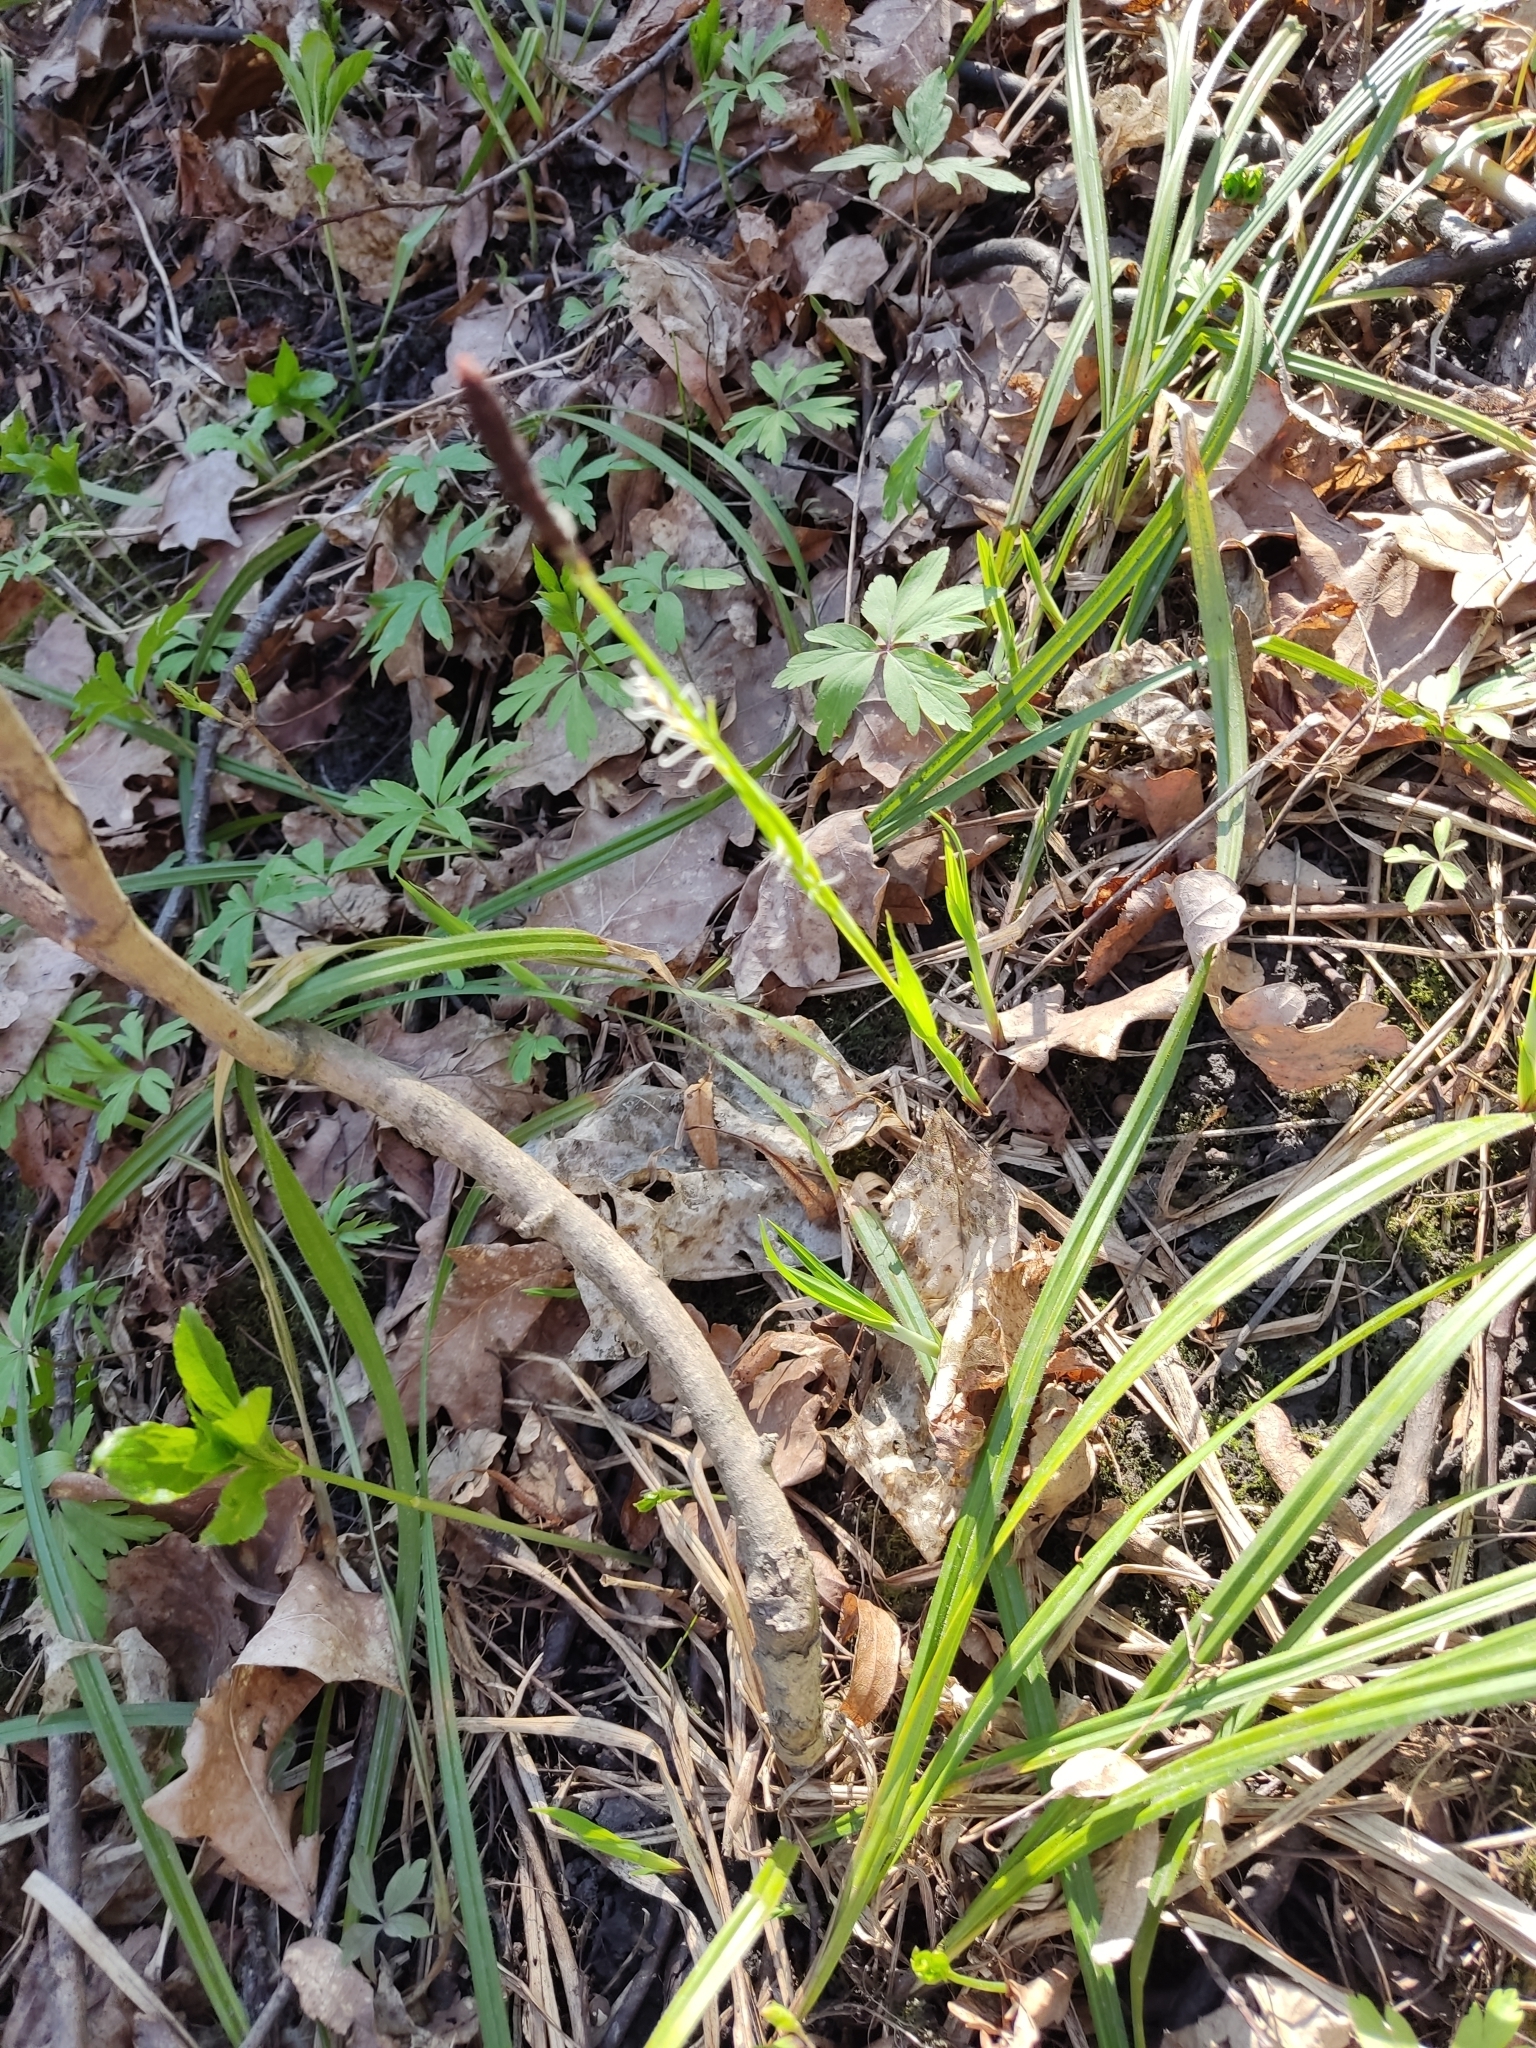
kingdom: Plantae
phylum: Tracheophyta
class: Liliopsida
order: Poales
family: Cyperaceae
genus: Carex
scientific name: Carex pilosa
